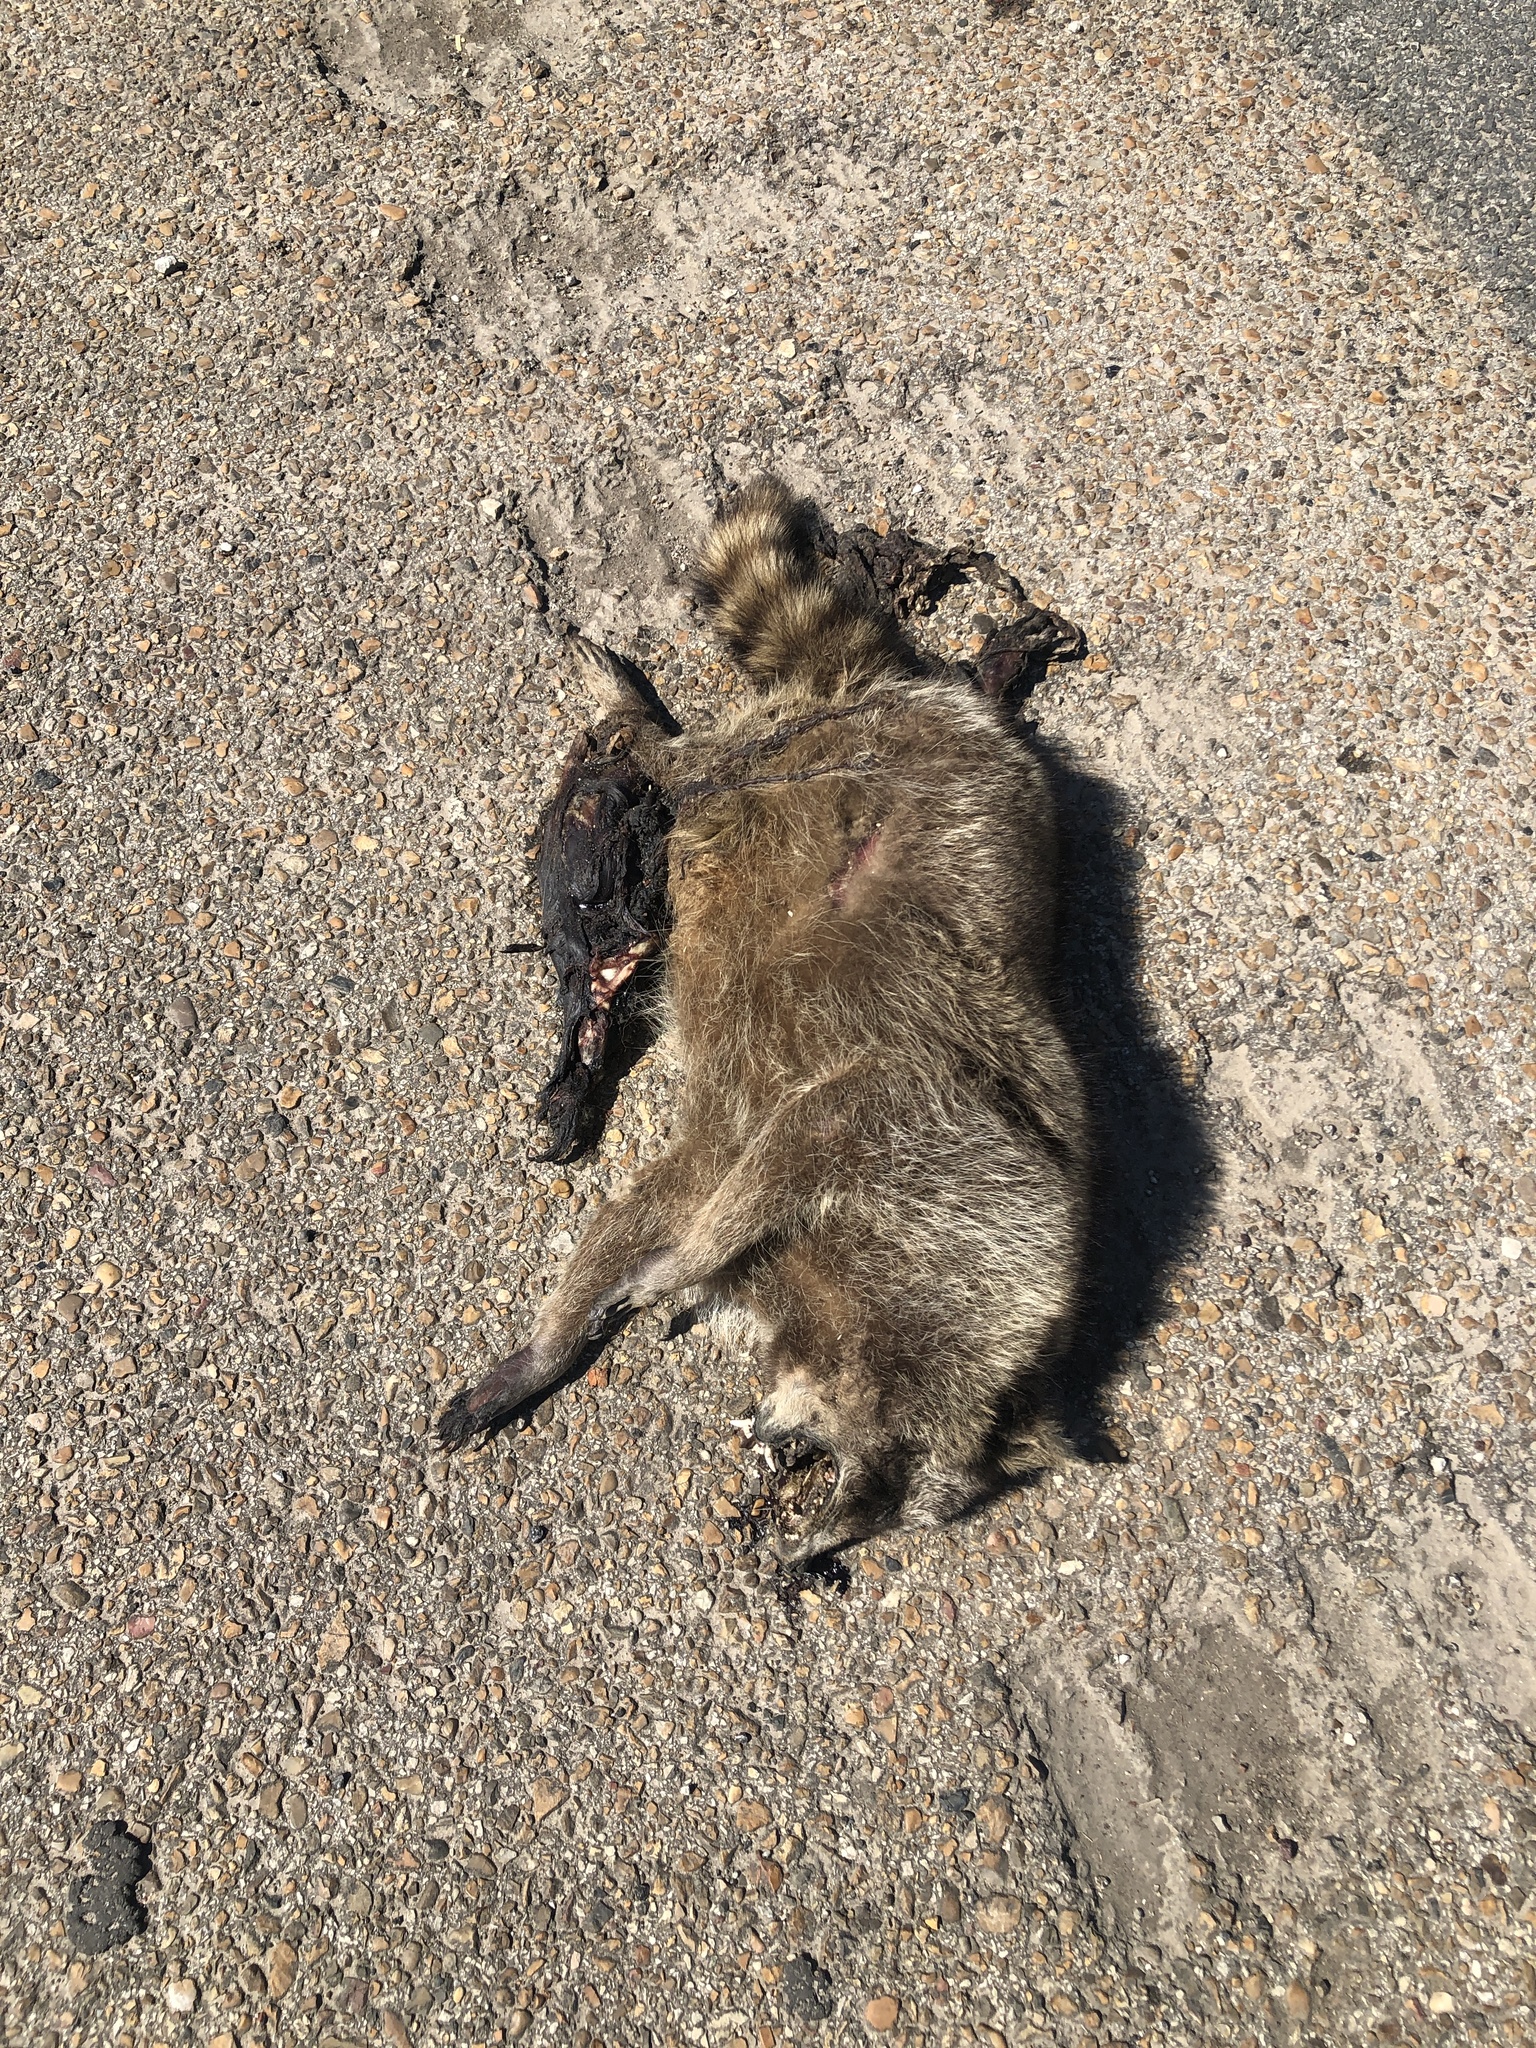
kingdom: Animalia
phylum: Chordata
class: Mammalia
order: Carnivora
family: Procyonidae
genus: Procyon
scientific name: Procyon lotor
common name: Raccoon
